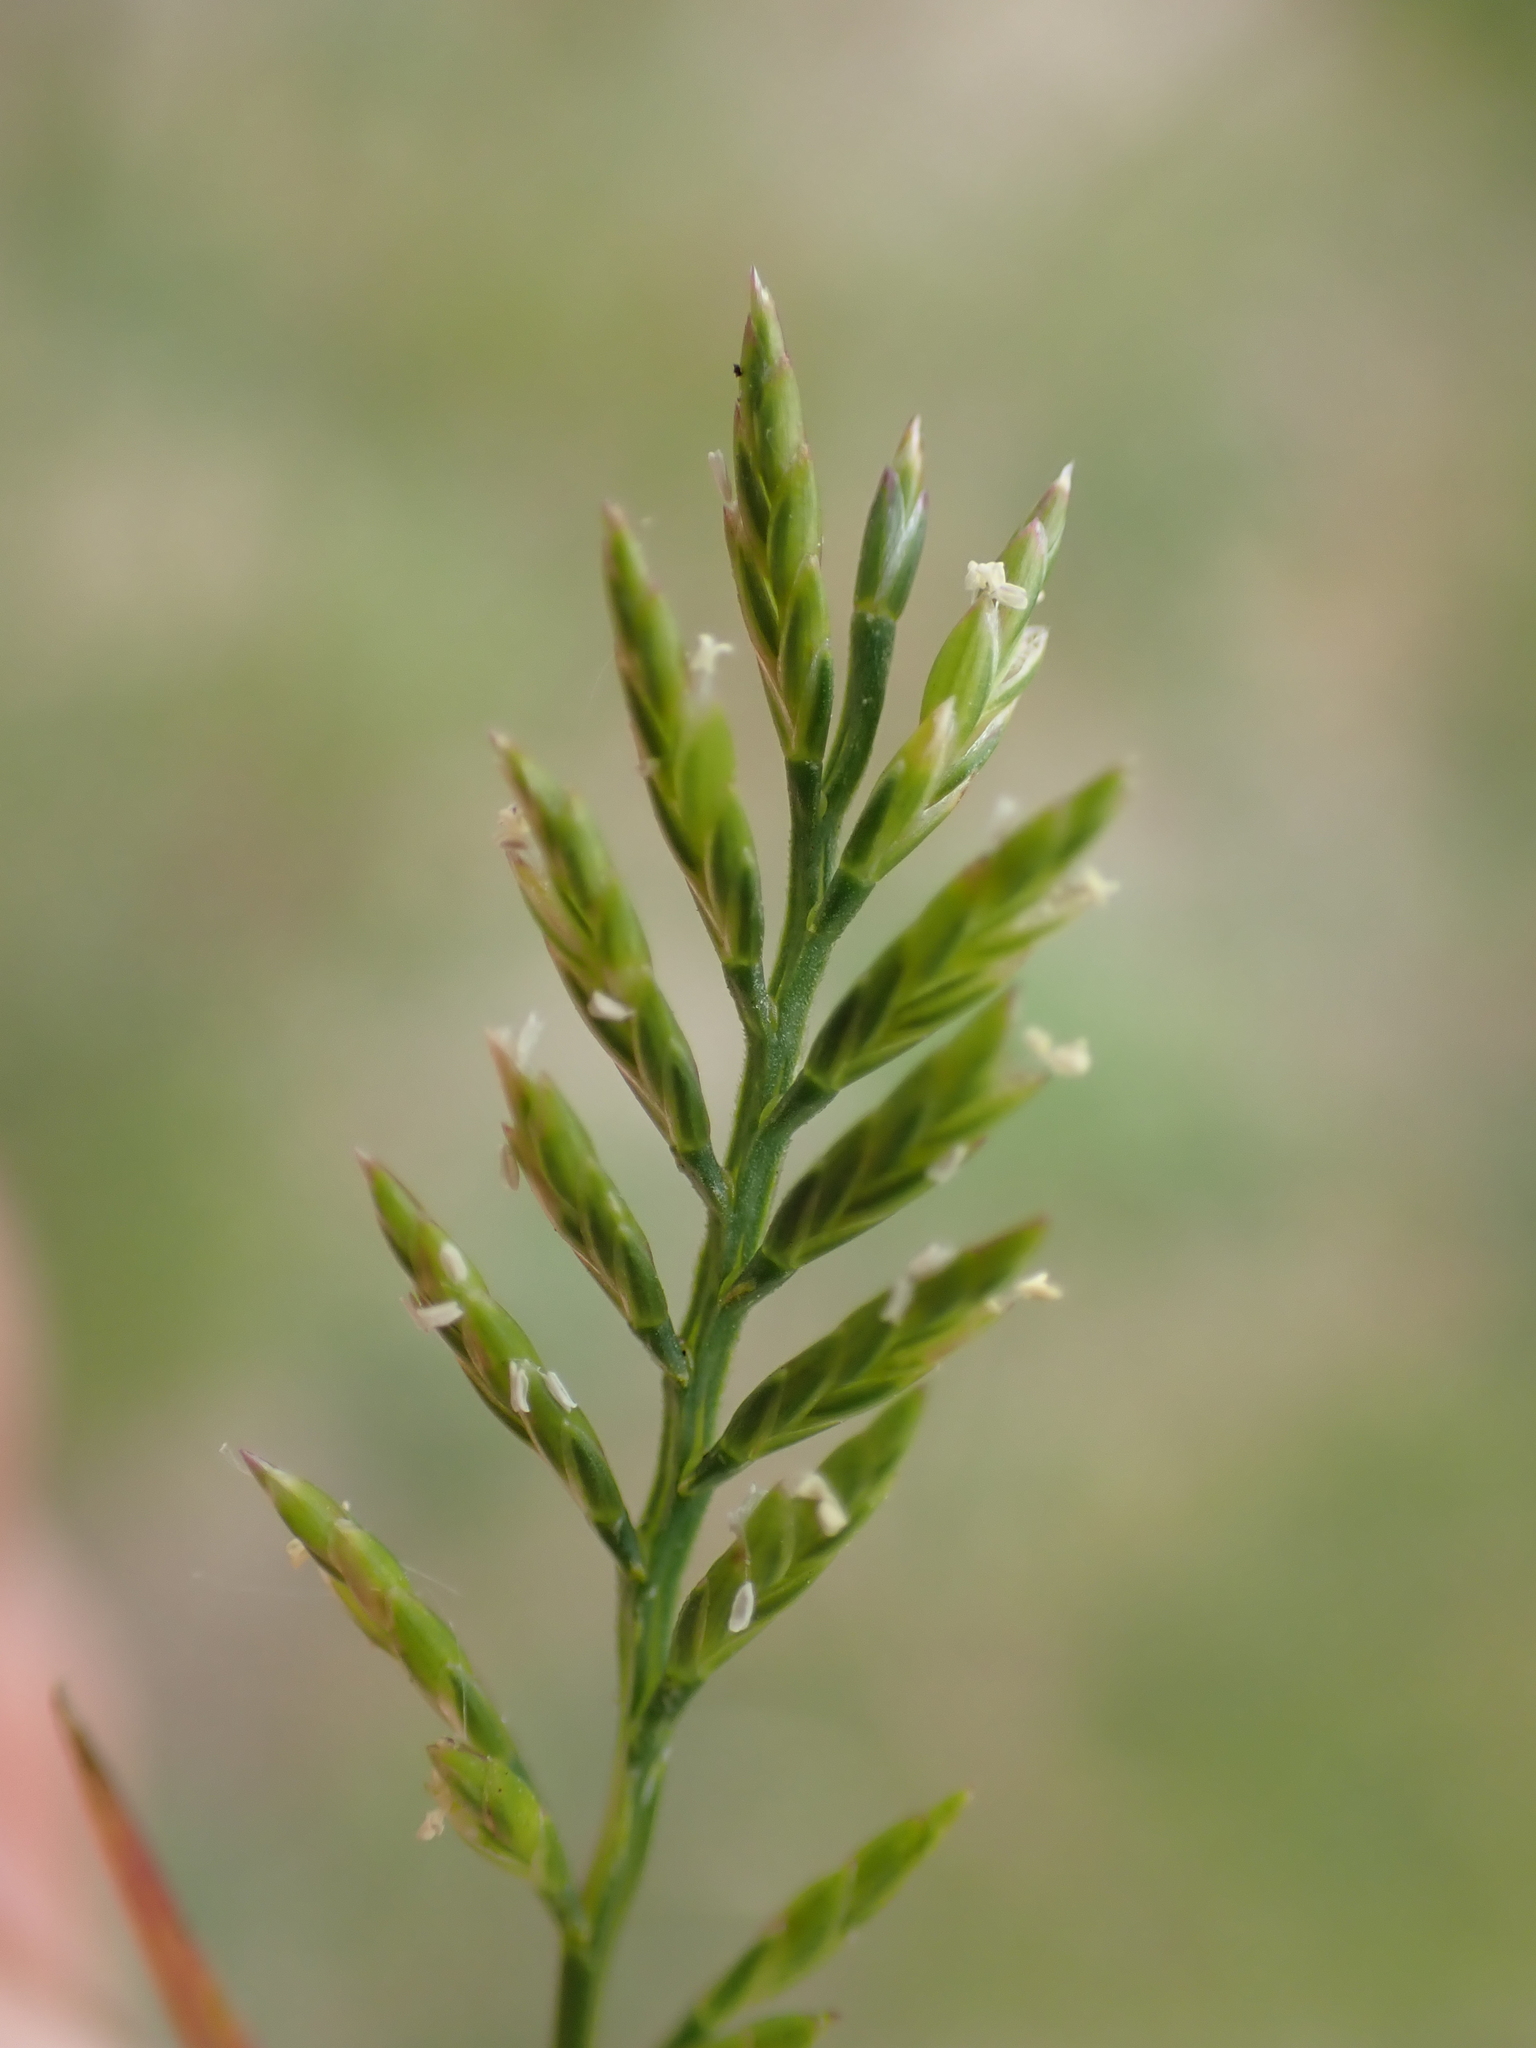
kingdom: Plantae
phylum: Tracheophyta
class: Liliopsida
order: Poales
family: Poaceae
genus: Catapodium
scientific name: Catapodium rigidum
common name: Fern-grass
